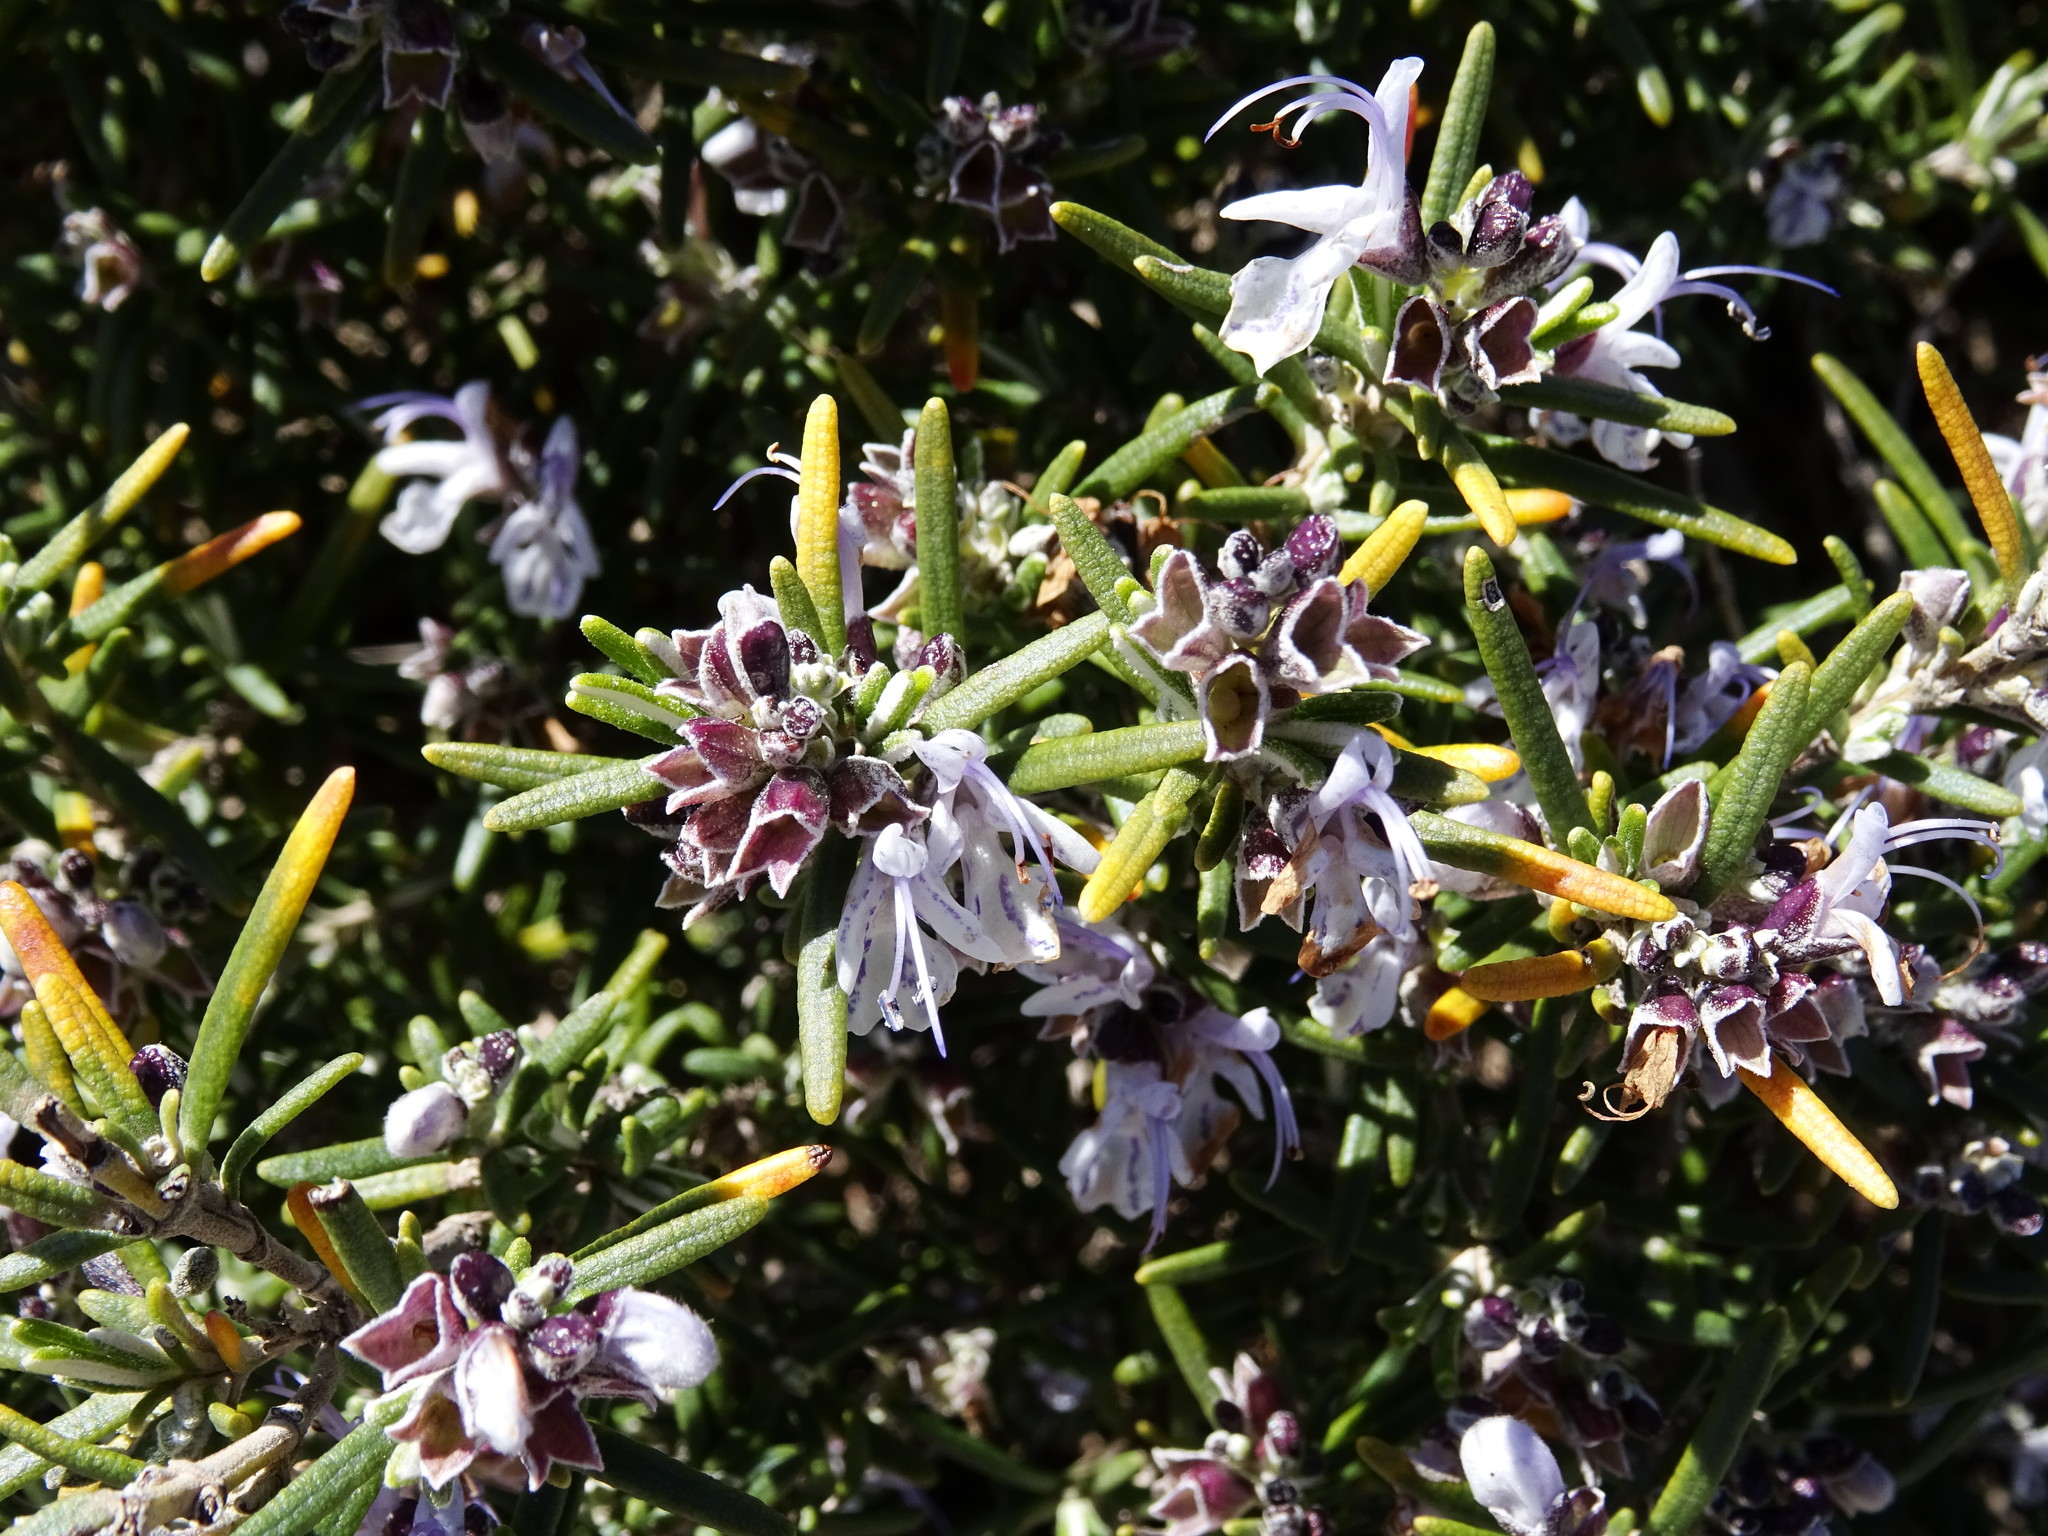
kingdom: Plantae
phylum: Tracheophyta
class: Magnoliopsida
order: Lamiales
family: Lamiaceae
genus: Salvia
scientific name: Salvia rosmarinus
